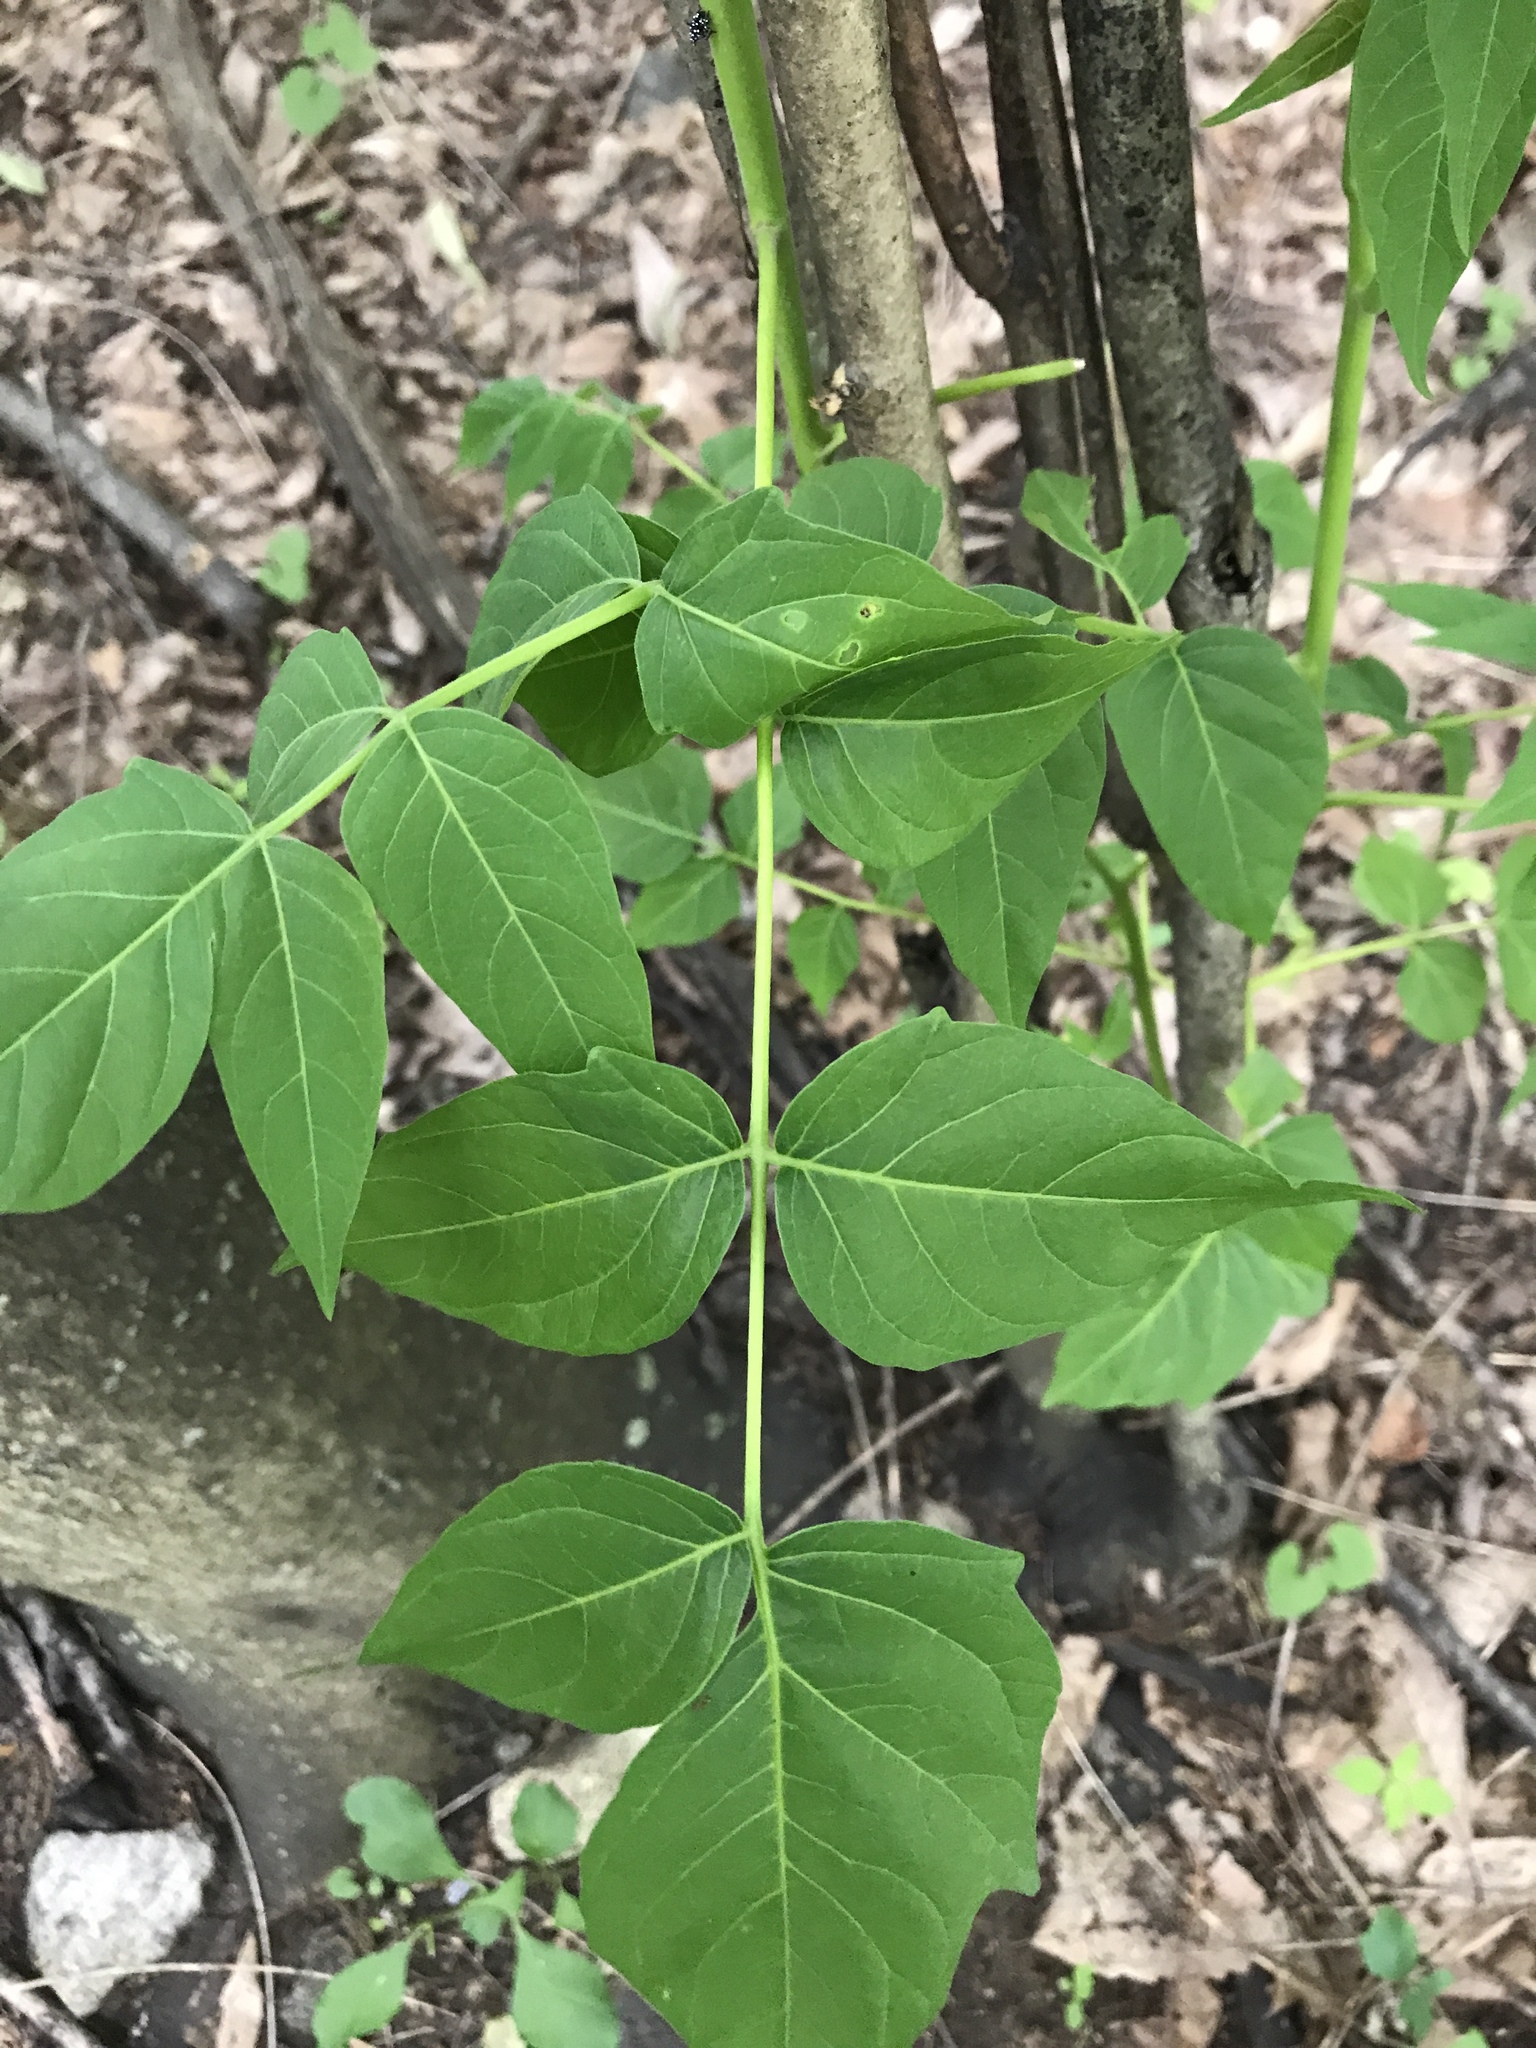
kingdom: Plantae
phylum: Tracheophyta
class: Magnoliopsida
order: Sapindales
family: Simaroubaceae
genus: Ailanthus
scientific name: Ailanthus altissima
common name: Tree-of-heaven
